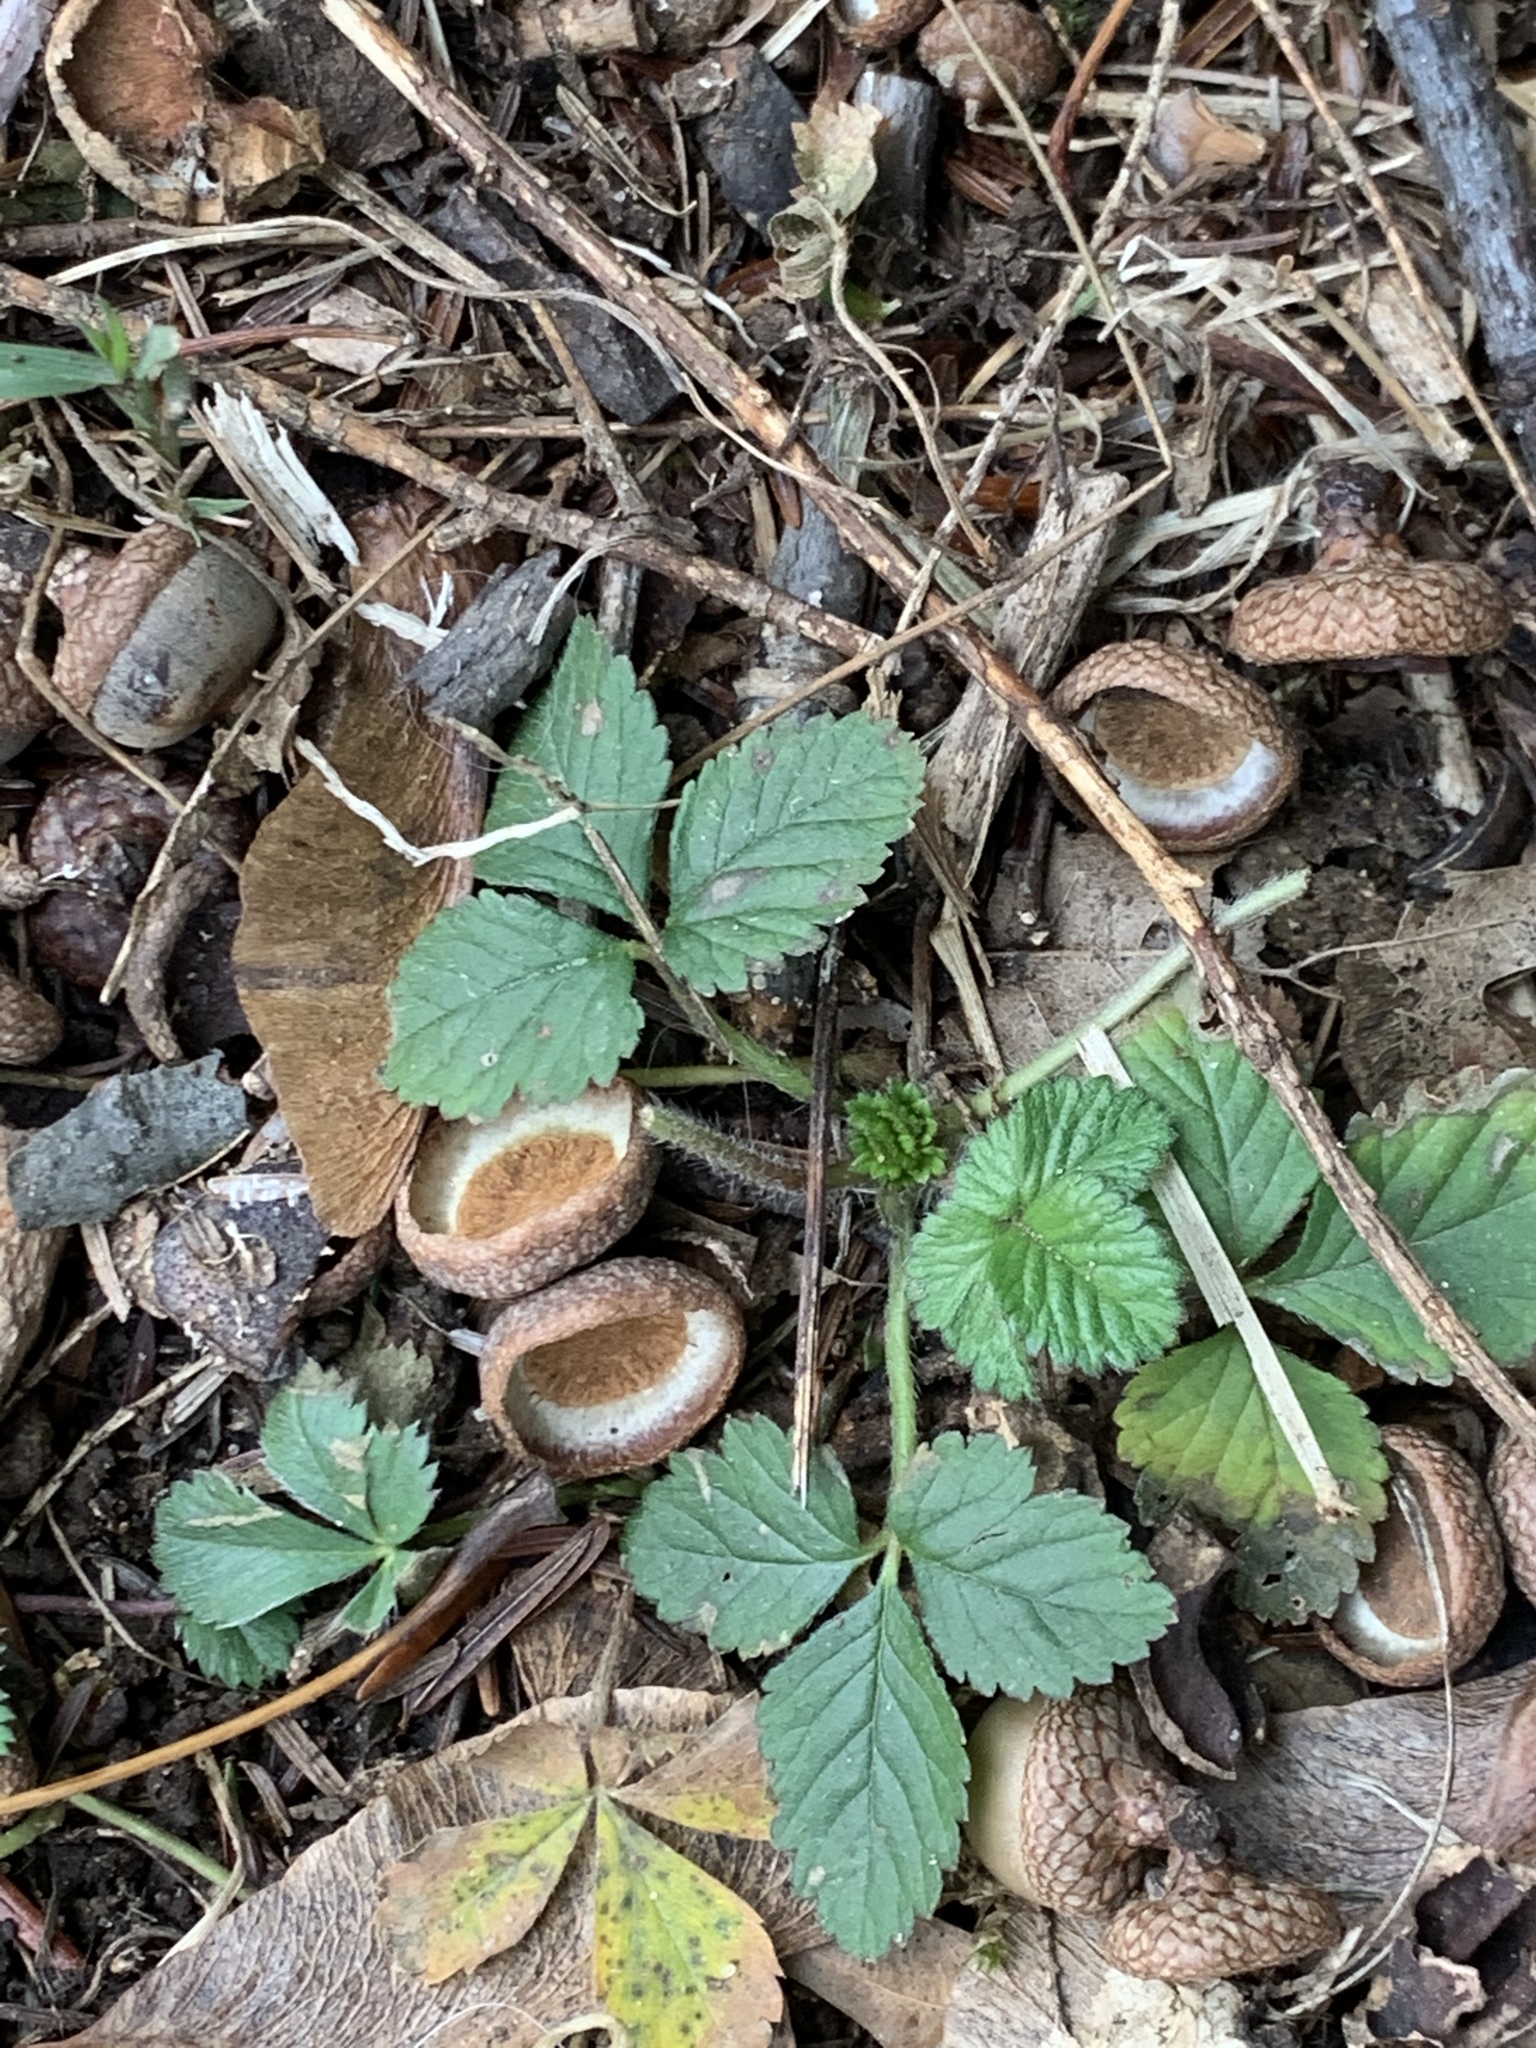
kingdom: Plantae
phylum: Tracheophyta
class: Magnoliopsida
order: Rosales
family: Rosaceae
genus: Potentilla
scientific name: Potentilla indica
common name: Yellow-flowered strawberry
